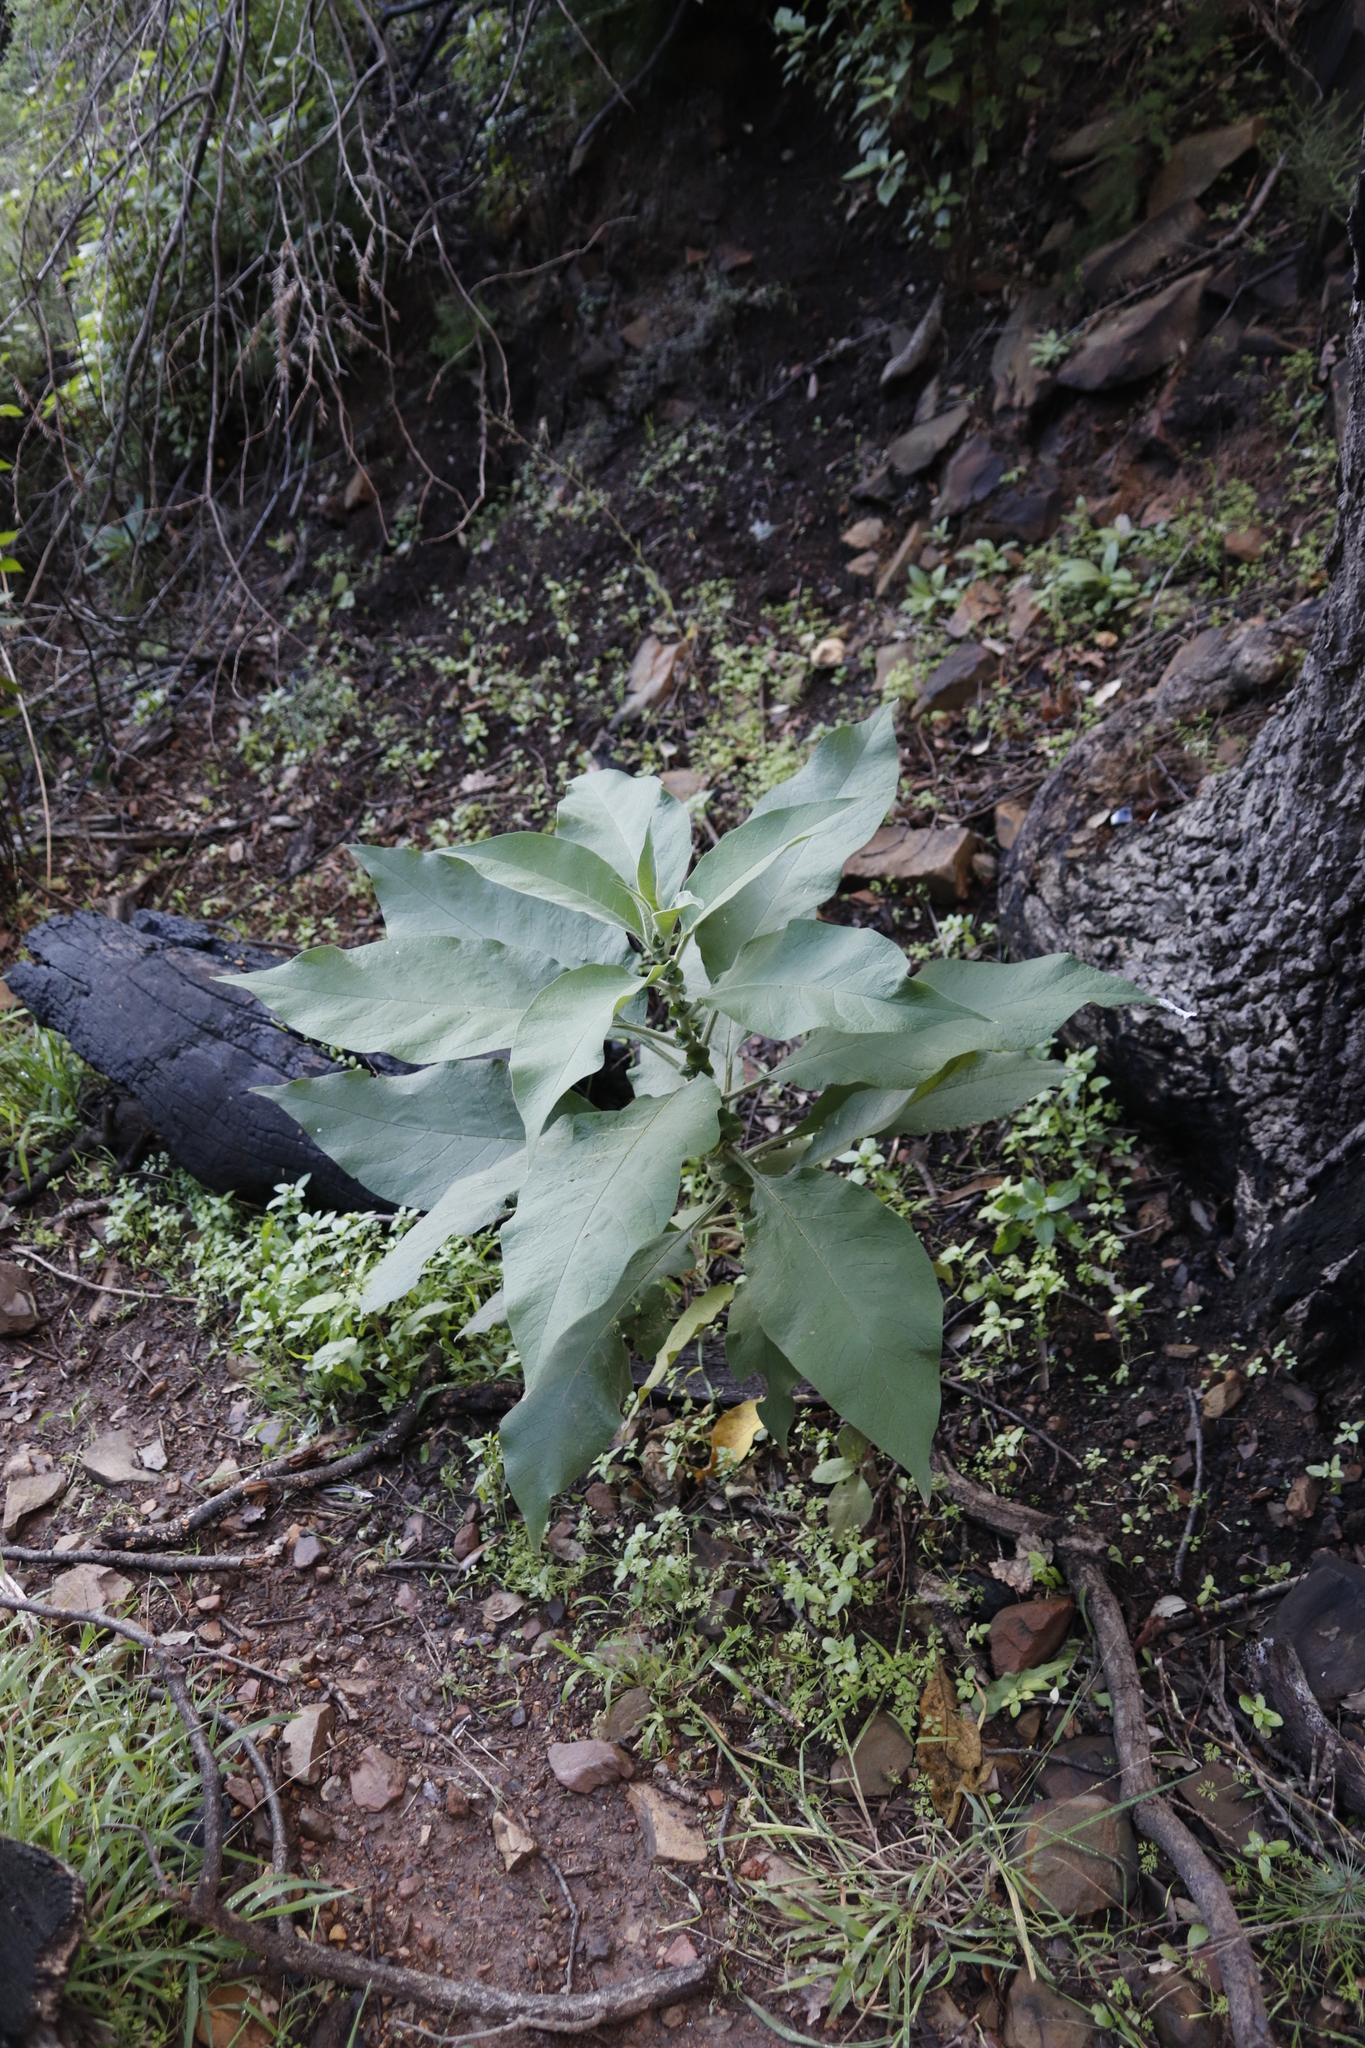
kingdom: Plantae
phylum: Tracheophyta
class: Magnoliopsida
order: Solanales
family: Solanaceae
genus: Solanum
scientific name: Solanum mauritianum
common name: Earleaf nightshade
